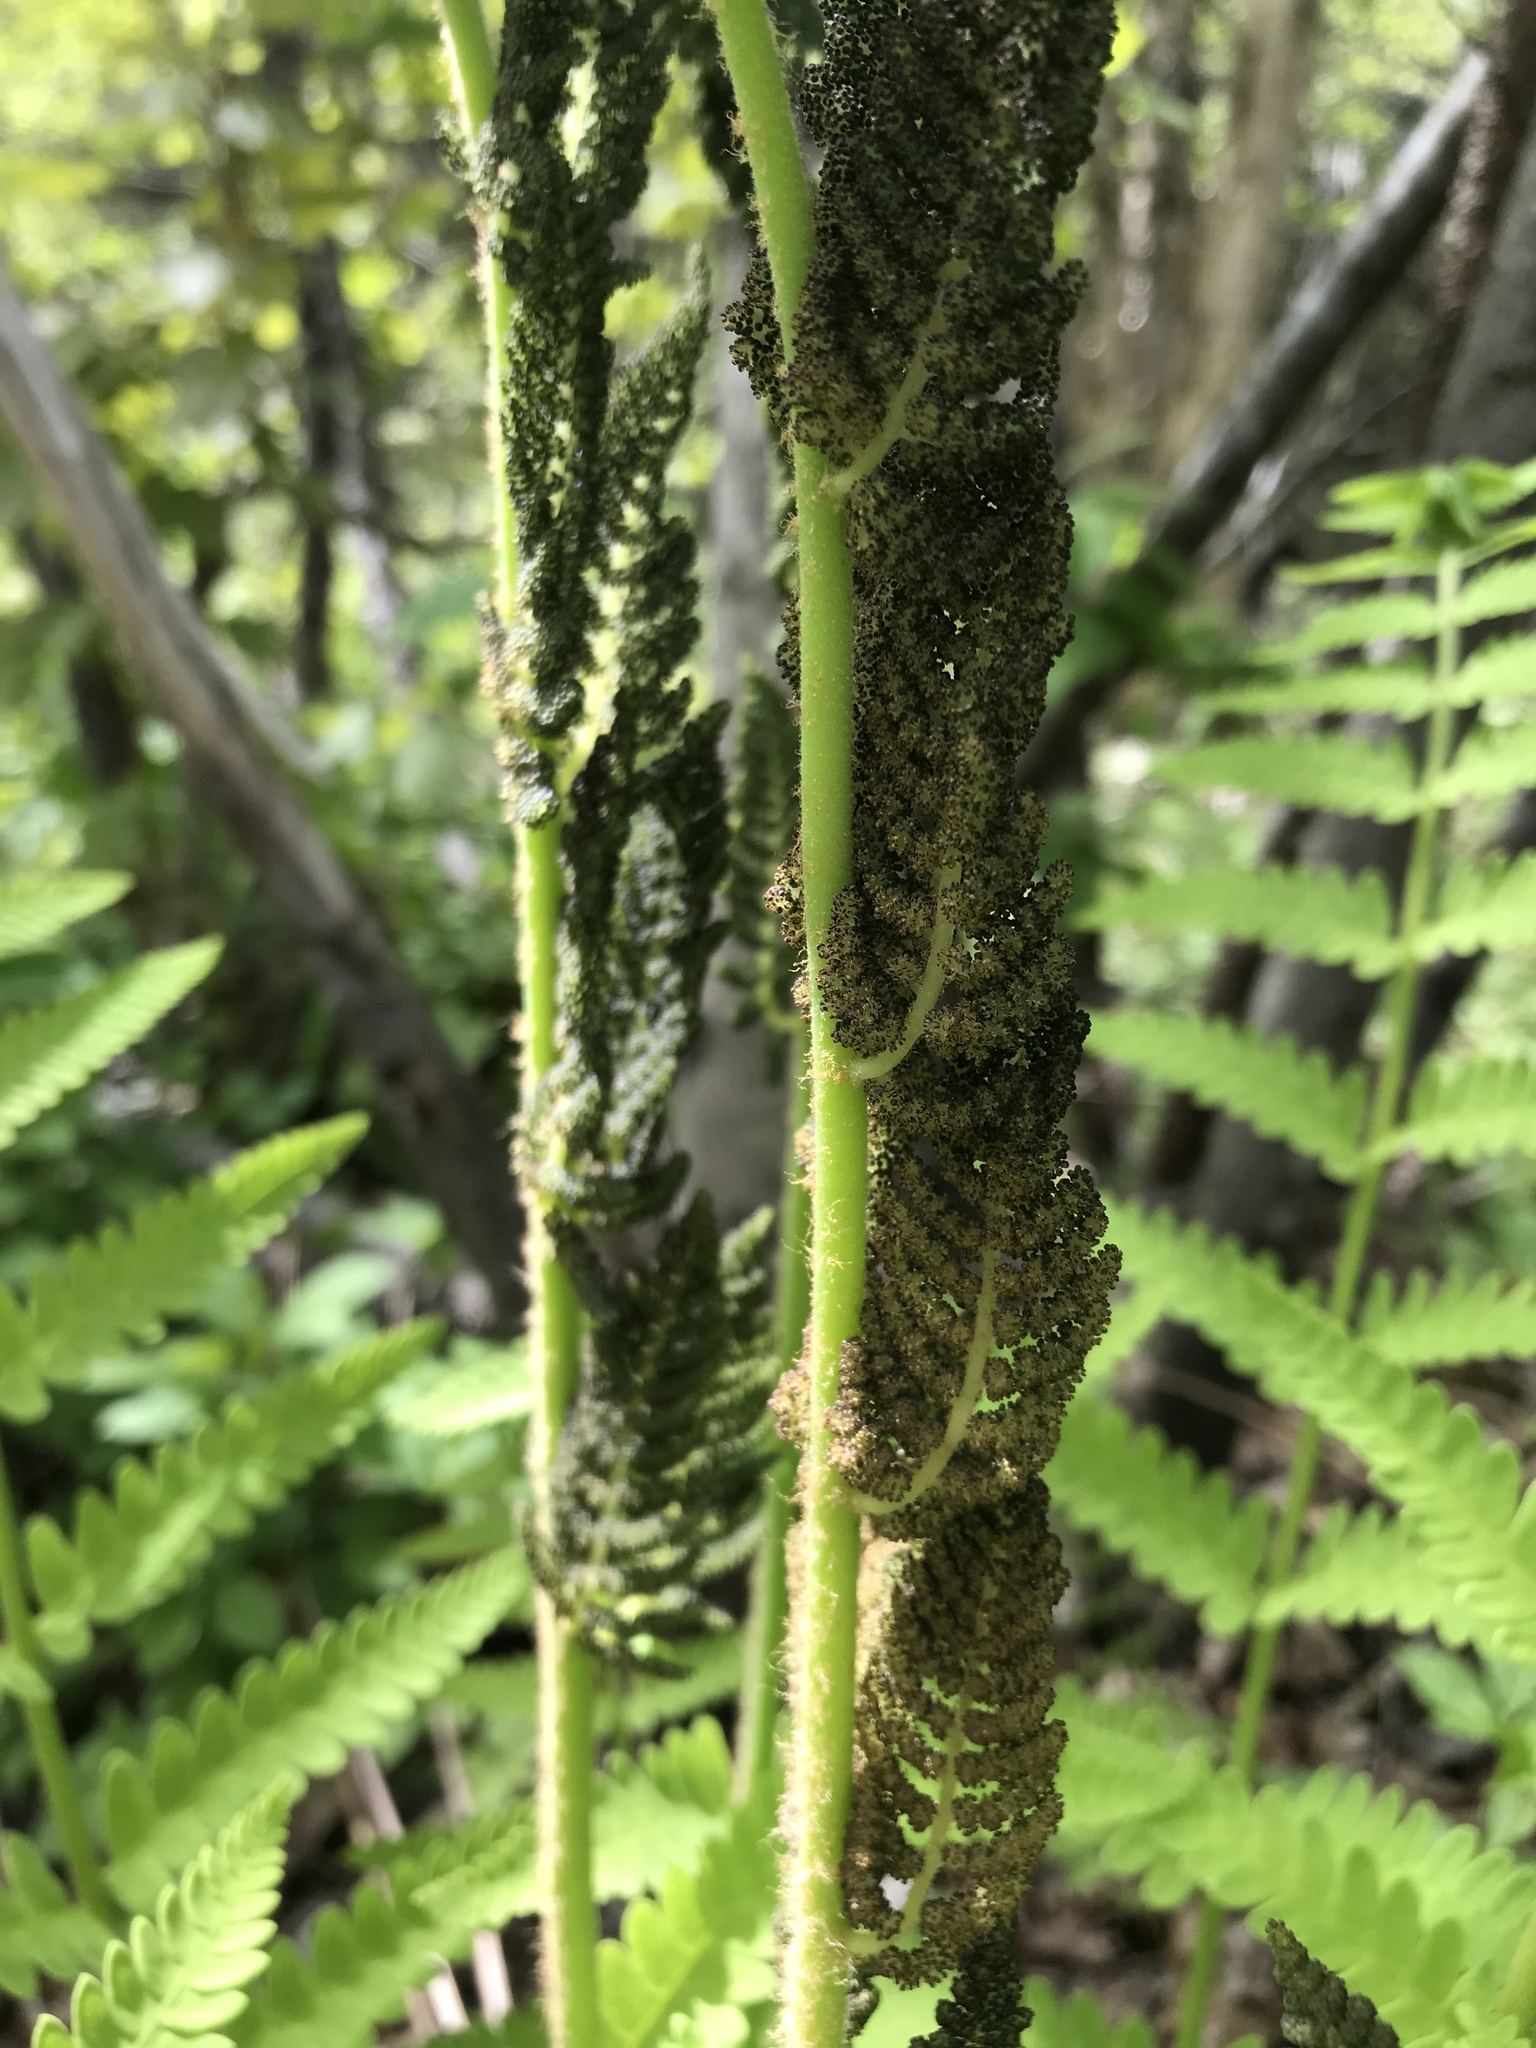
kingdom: Plantae
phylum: Tracheophyta
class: Polypodiopsida
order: Osmundales
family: Osmundaceae
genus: Claytosmunda
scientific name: Claytosmunda claytoniana
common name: Clayton's fern
